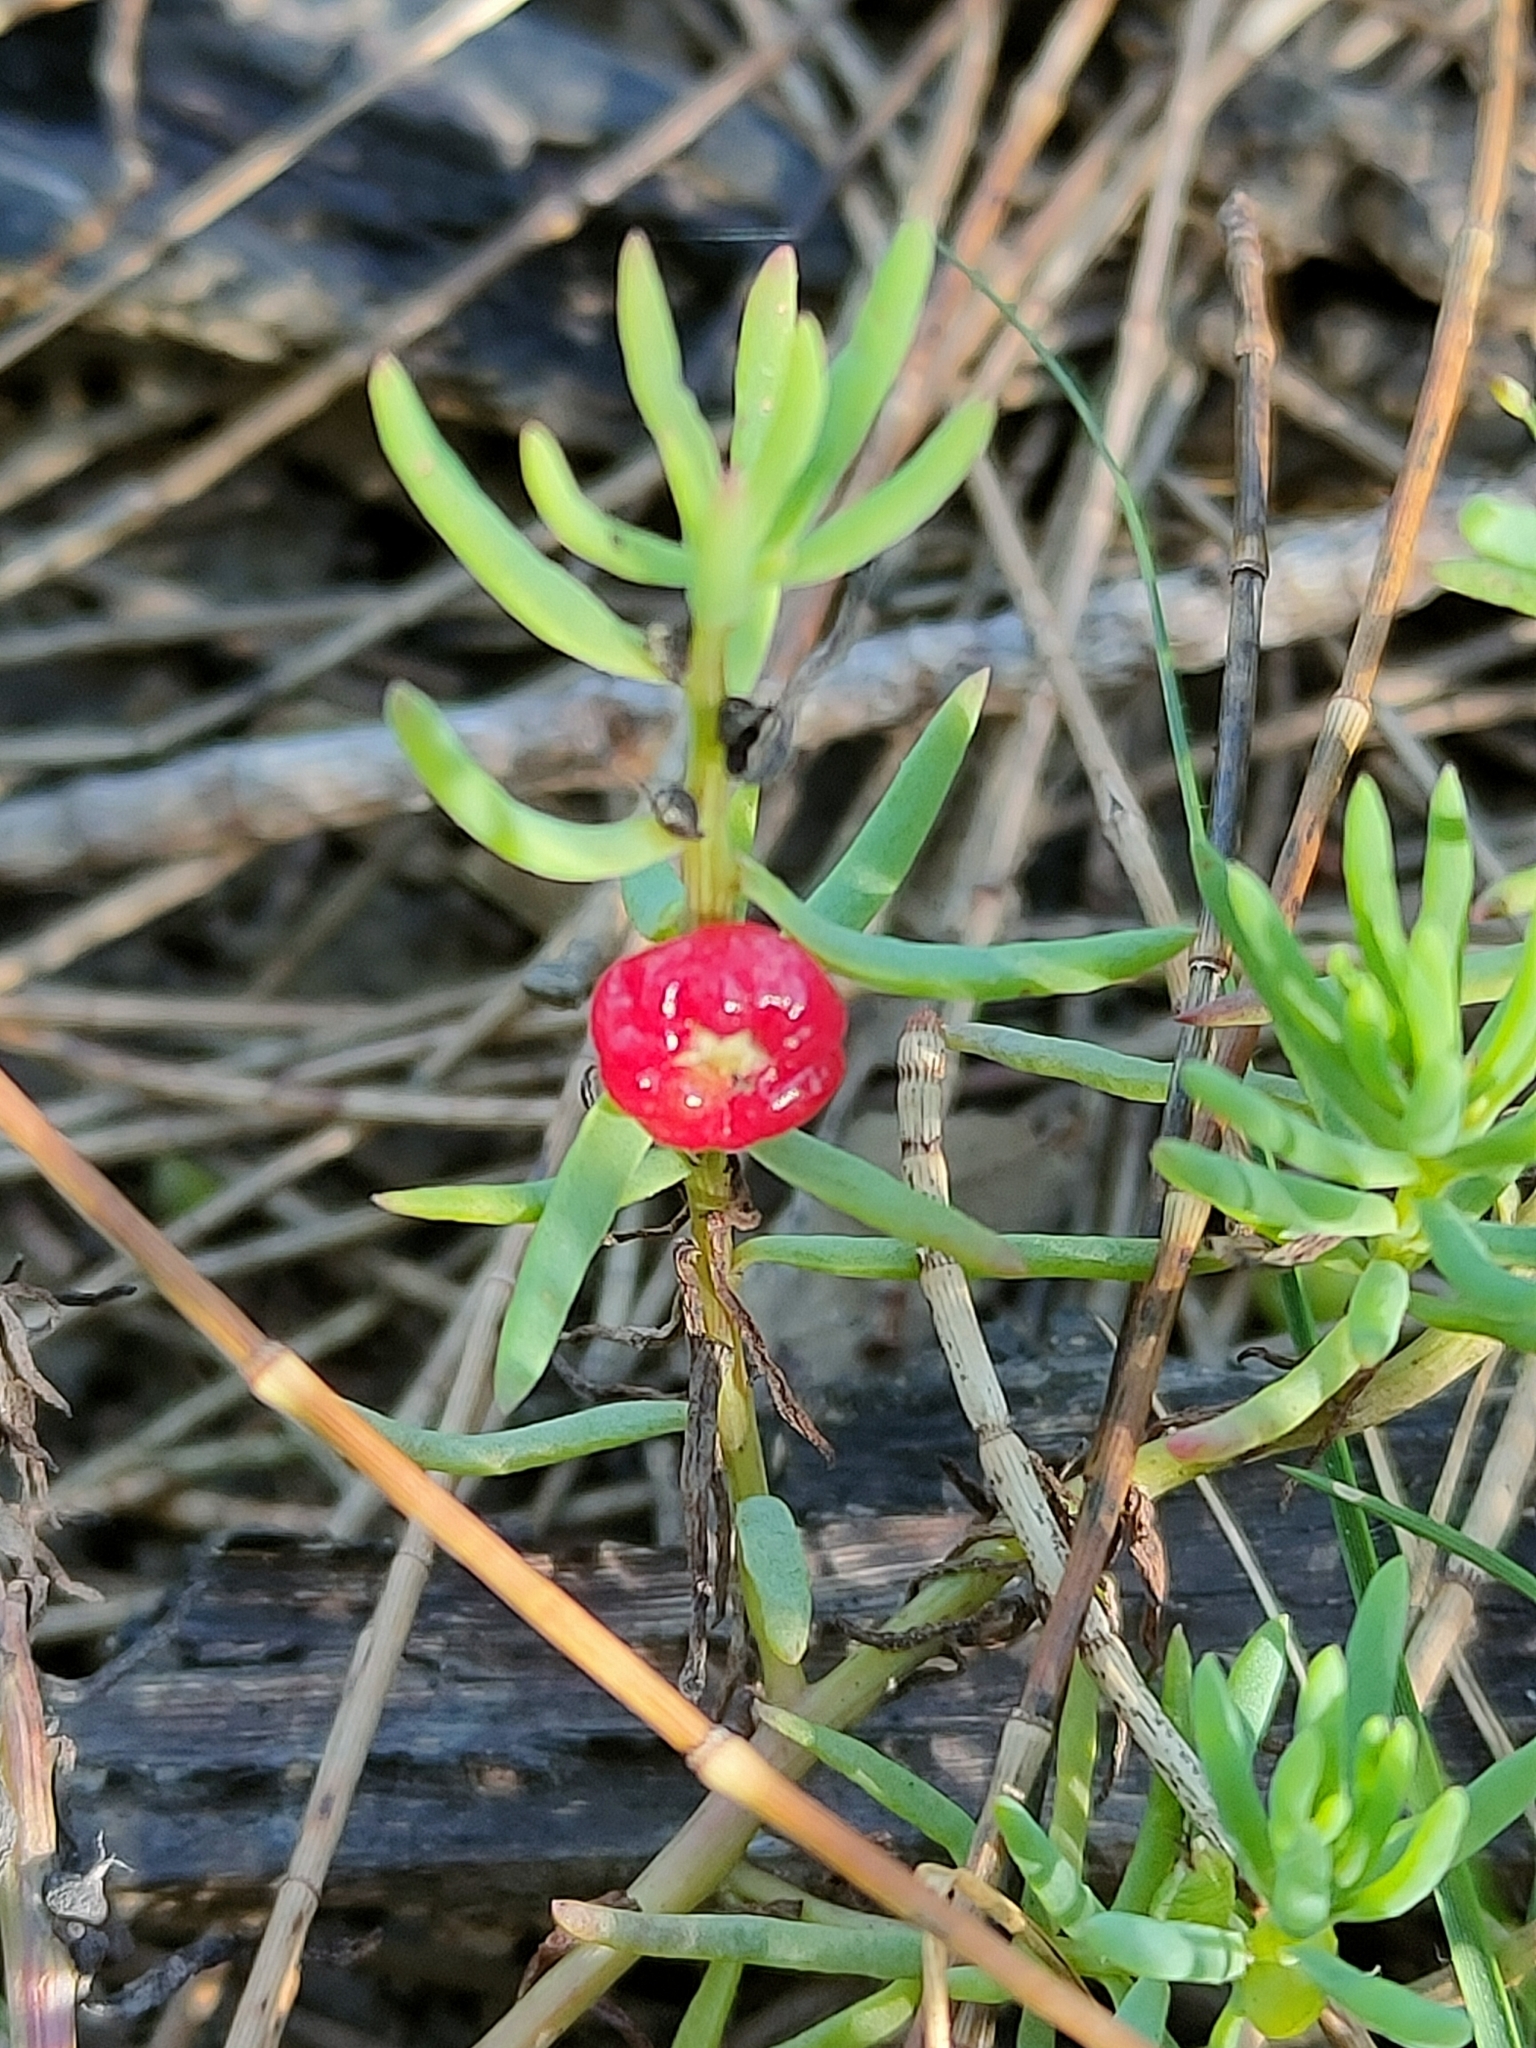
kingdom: Plantae
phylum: Tracheophyta
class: Magnoliopsida
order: Caryophyllales
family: Amaranthaceae
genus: Enchylaena
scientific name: Enchylaena tomentosa
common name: Ruby saltbush
